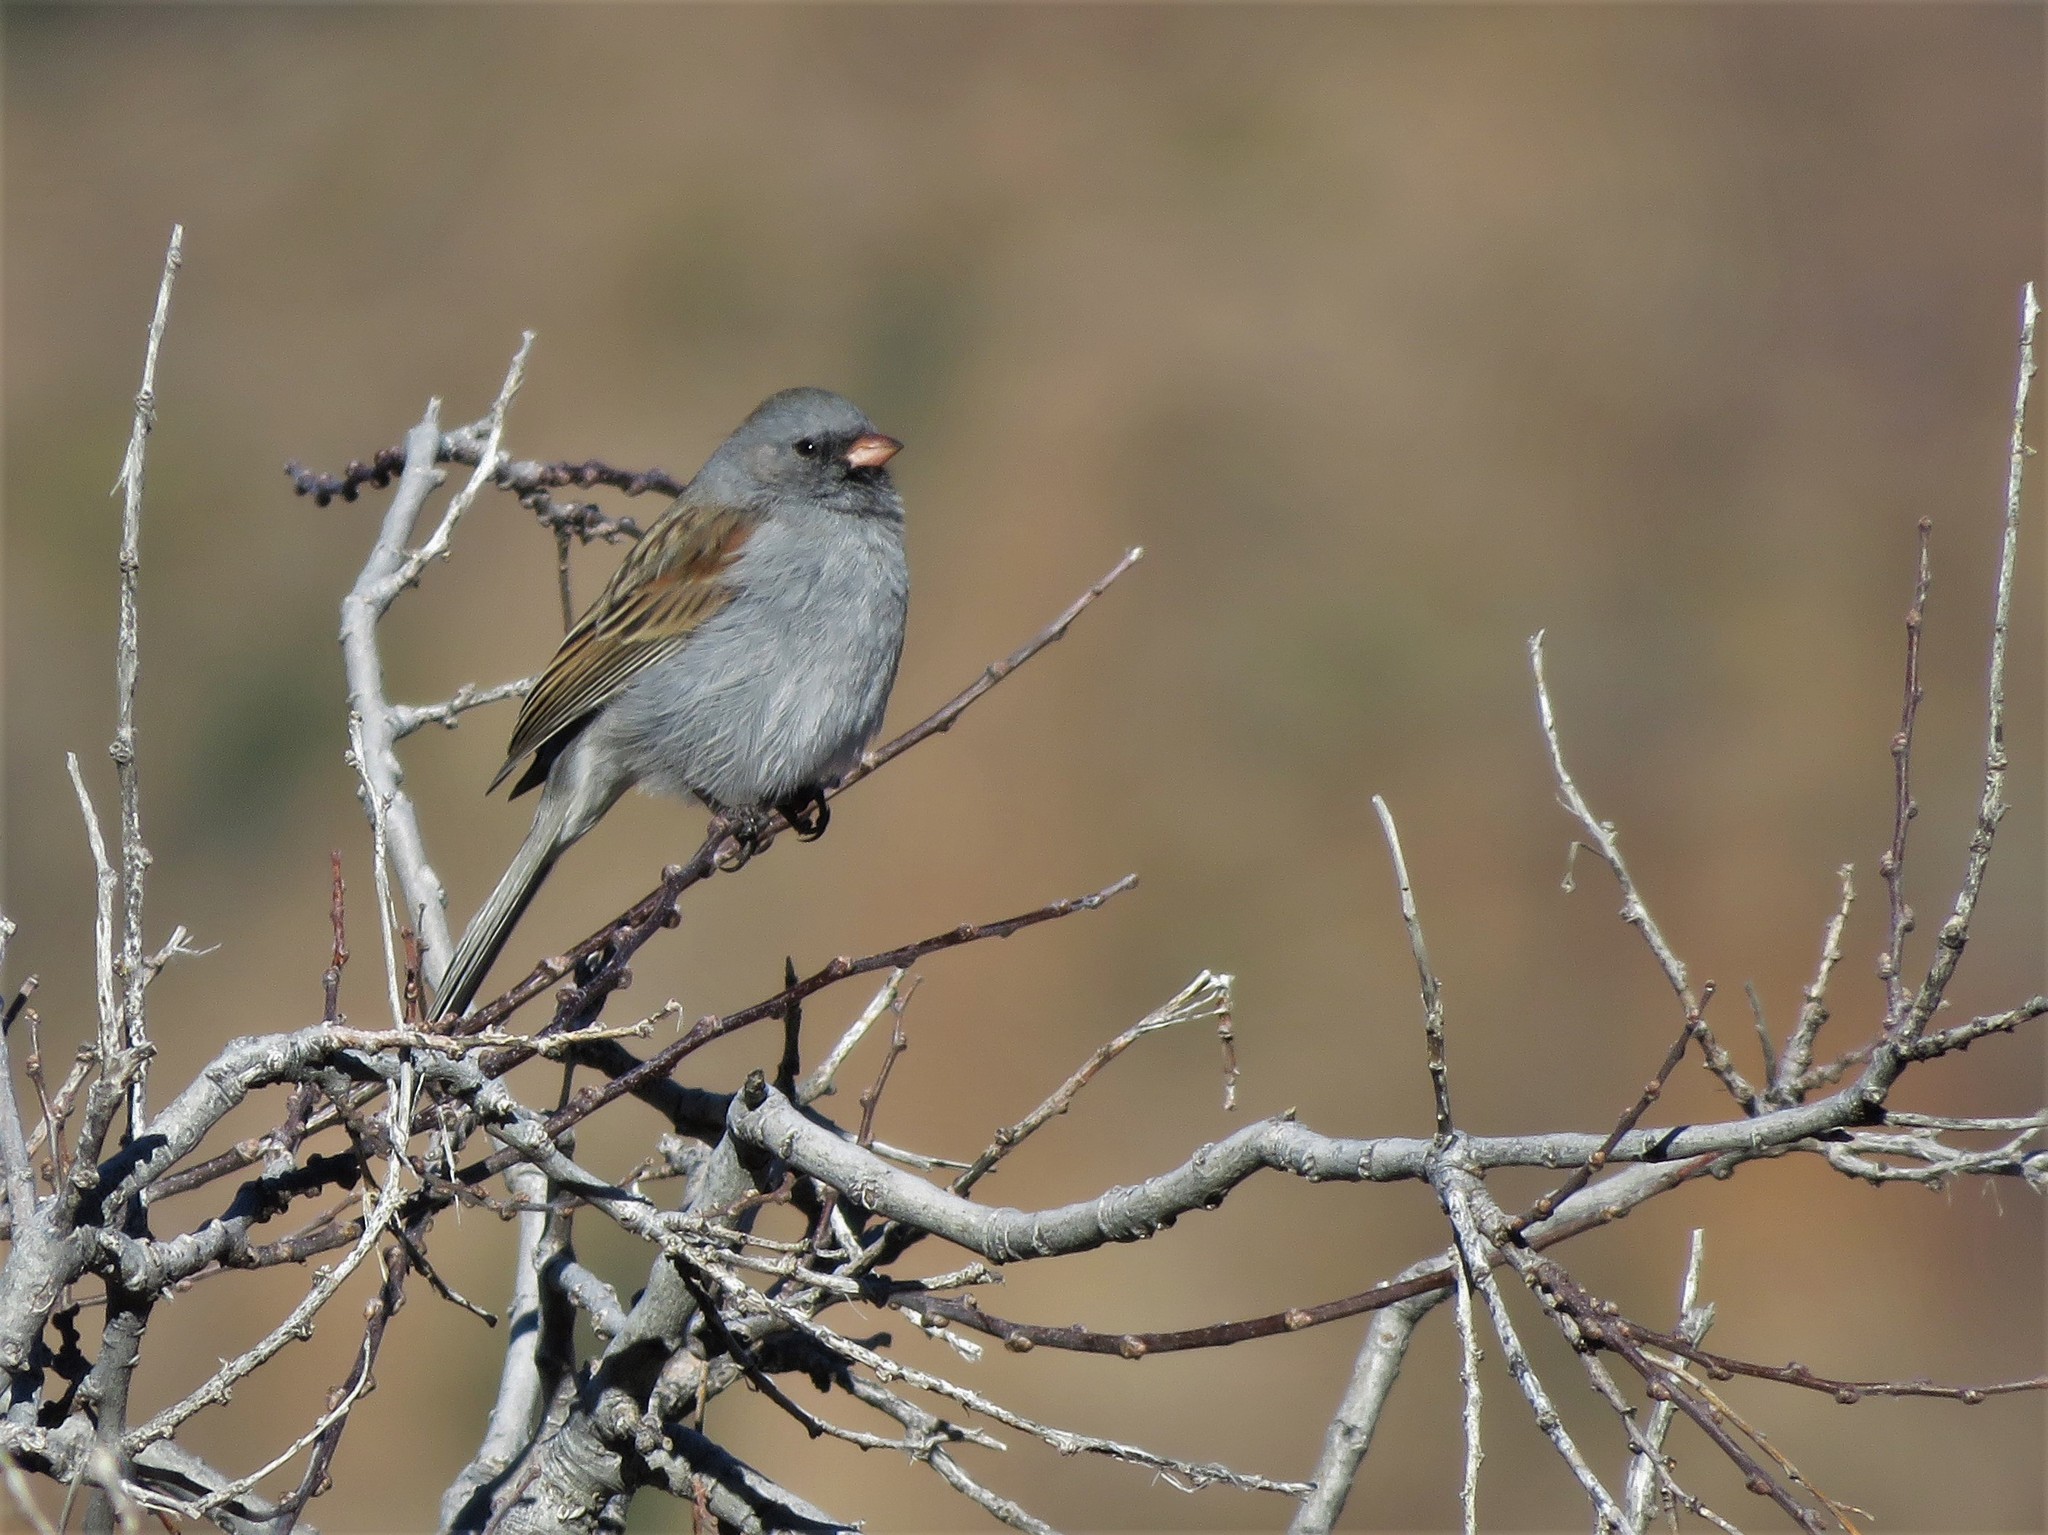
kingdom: Animalia
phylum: Chordata
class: Aves
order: Passeriformes
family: Passerellidae
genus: Spizella
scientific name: Spizella atrogularis
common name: Black-chinned sparrow
